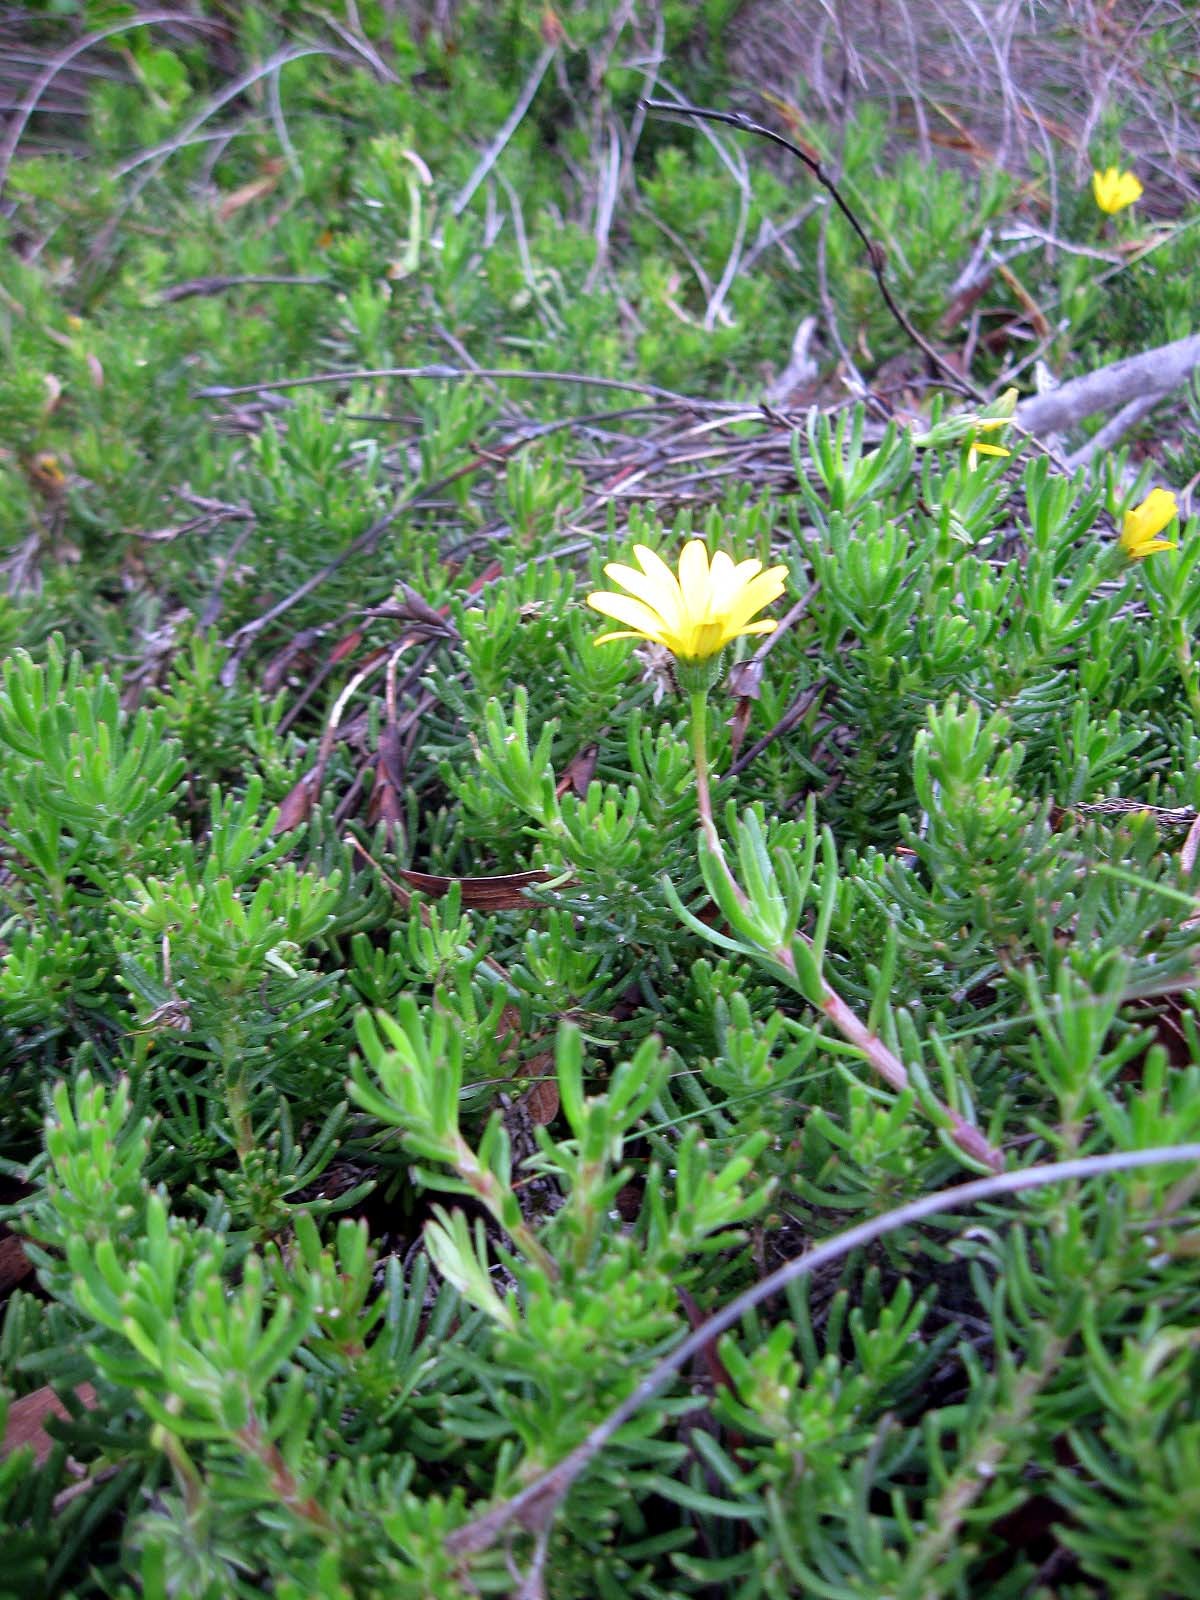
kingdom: Plantae
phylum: Tracheophyta
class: Magnoliopsida
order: Asterales
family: Asteraceae
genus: Osteospermum
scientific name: Osteospermum subulatum
